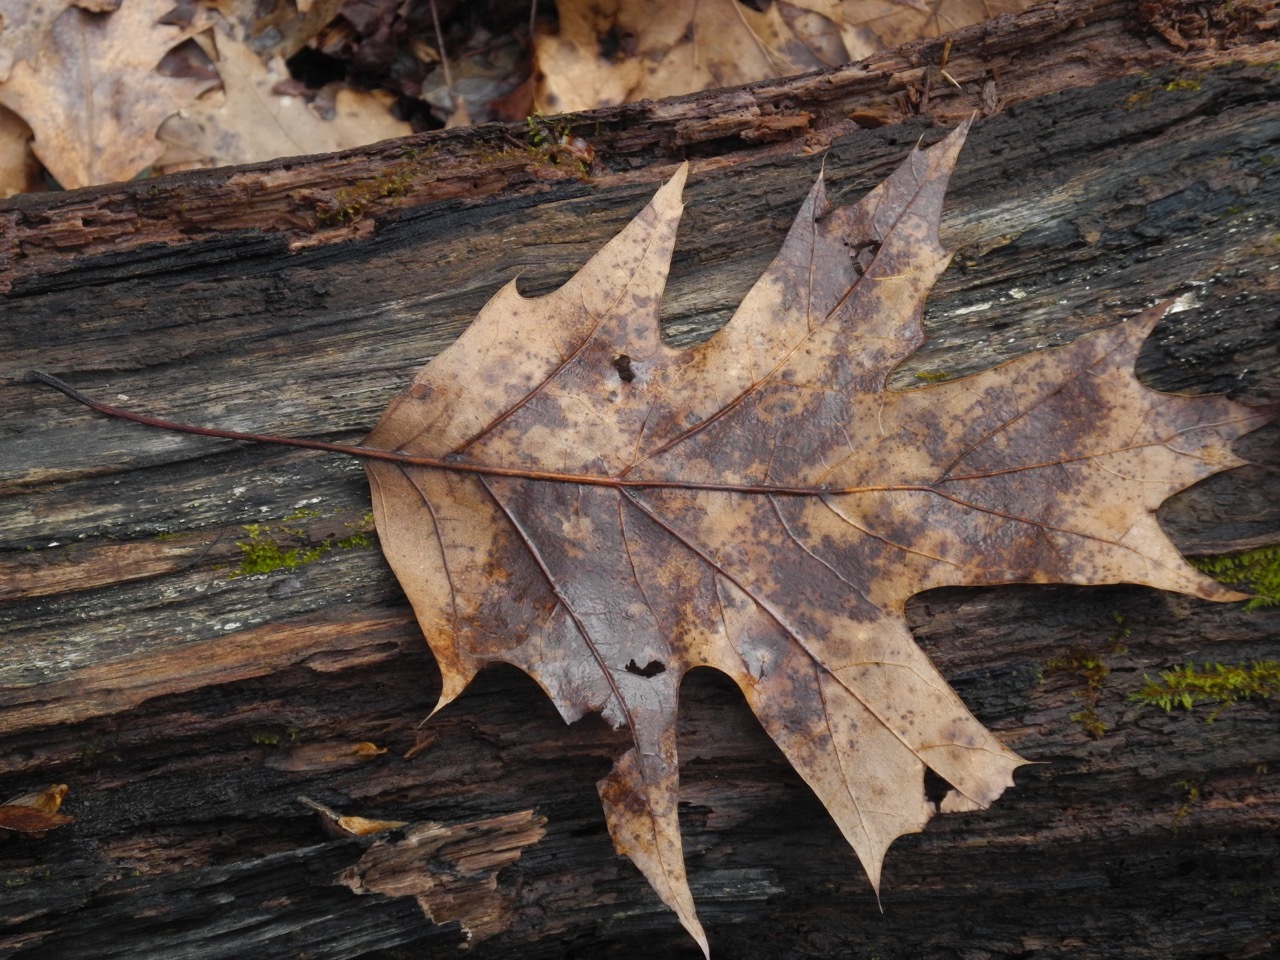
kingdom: Plantae
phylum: Tracheophyta
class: Magnoliopsida
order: Fagales
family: Fagaceae
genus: Quercus
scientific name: Quercus rubra
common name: Red oak
